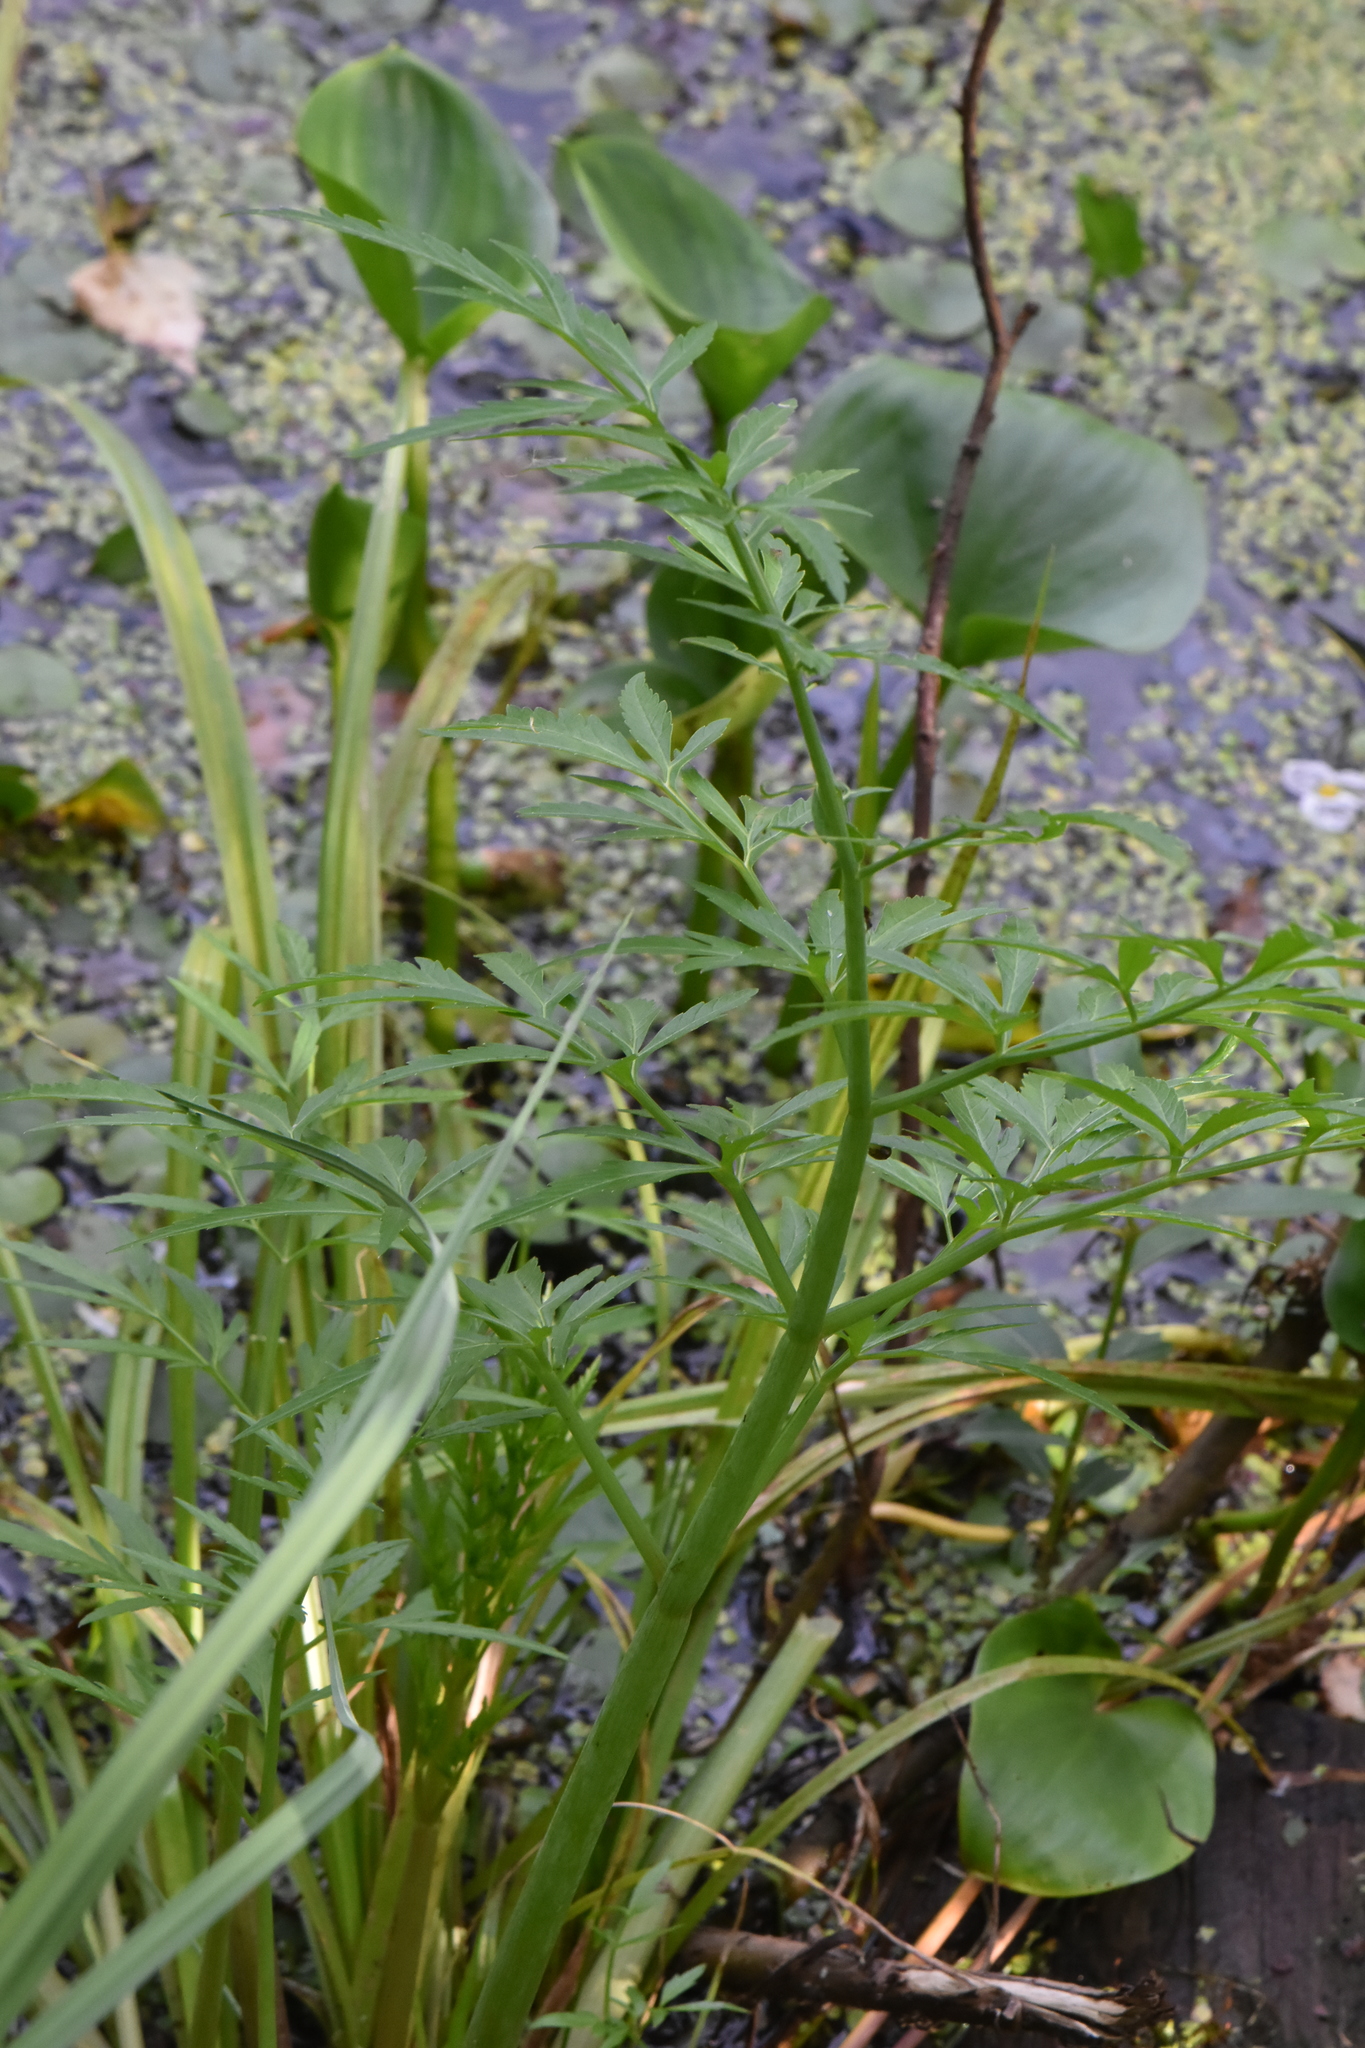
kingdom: Plantae
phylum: Tracheophyta
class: Magnoliopsida
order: Apiales
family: Apiaceae
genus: Cicuta
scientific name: Cicuta virosa
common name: Cowbane
